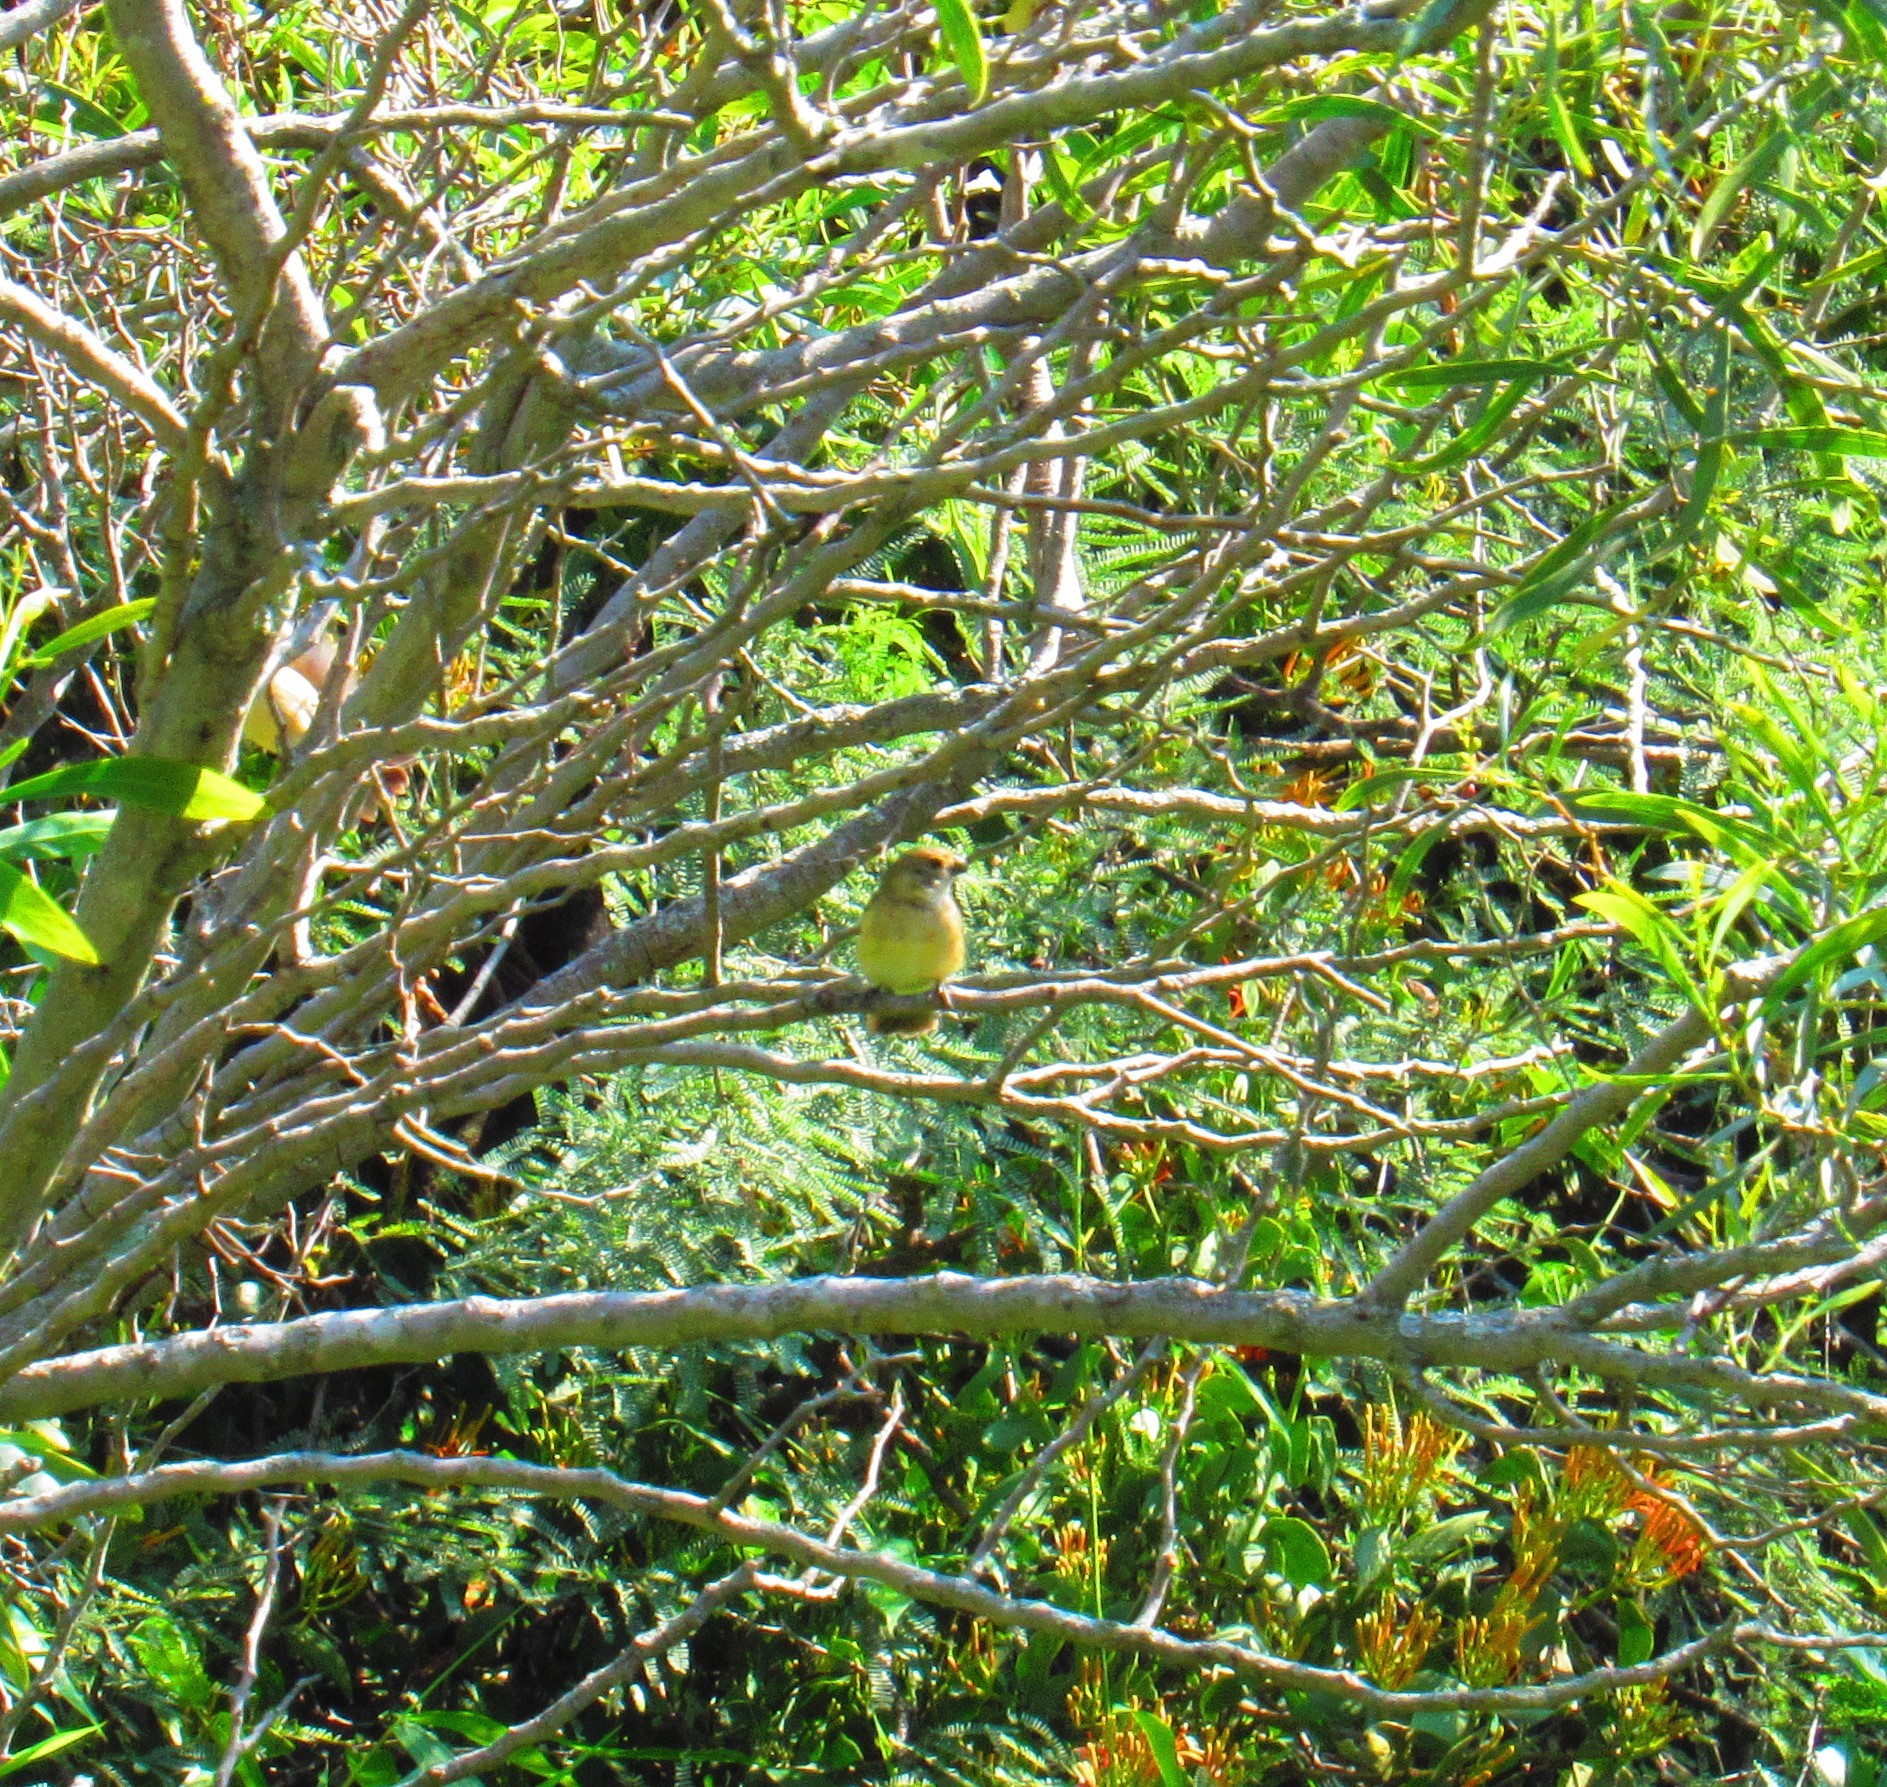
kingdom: Animalia
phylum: Chordata
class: Aves
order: Passeriformes
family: Thraupidae
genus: Sporophila
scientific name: Sporophila torqueola
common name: White-collared seedeater
